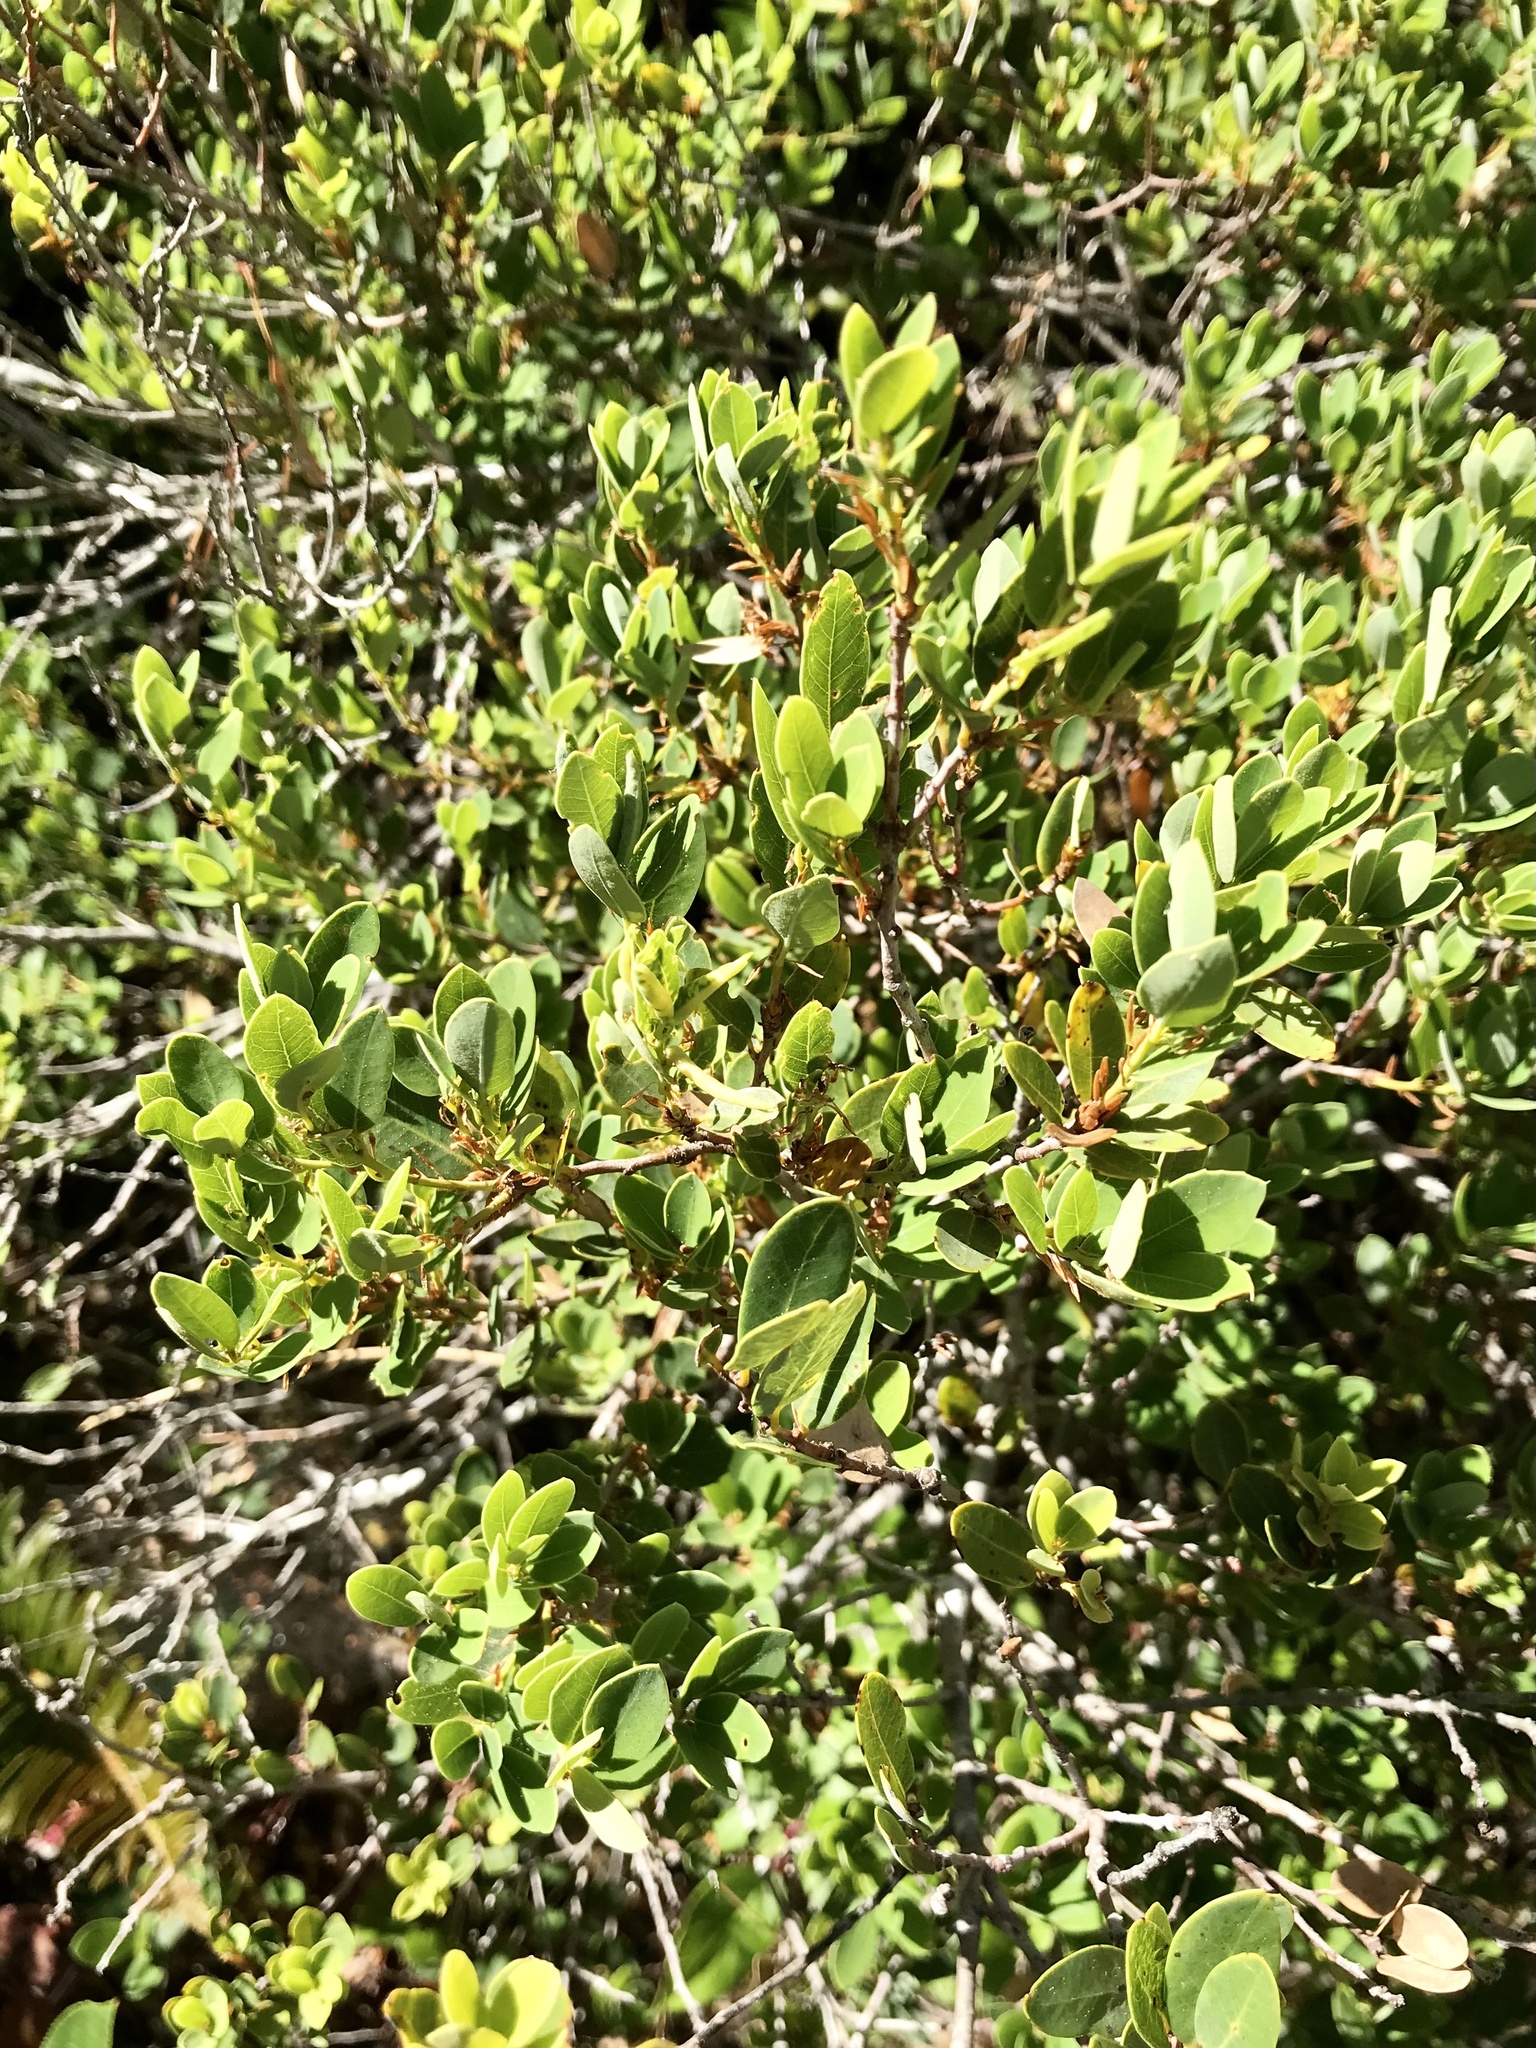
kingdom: Plantae
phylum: Tracheophyta
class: Magnoliopsida
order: Fagales
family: Fagaceae
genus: Quercus
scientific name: Quercus vacciniifolia
